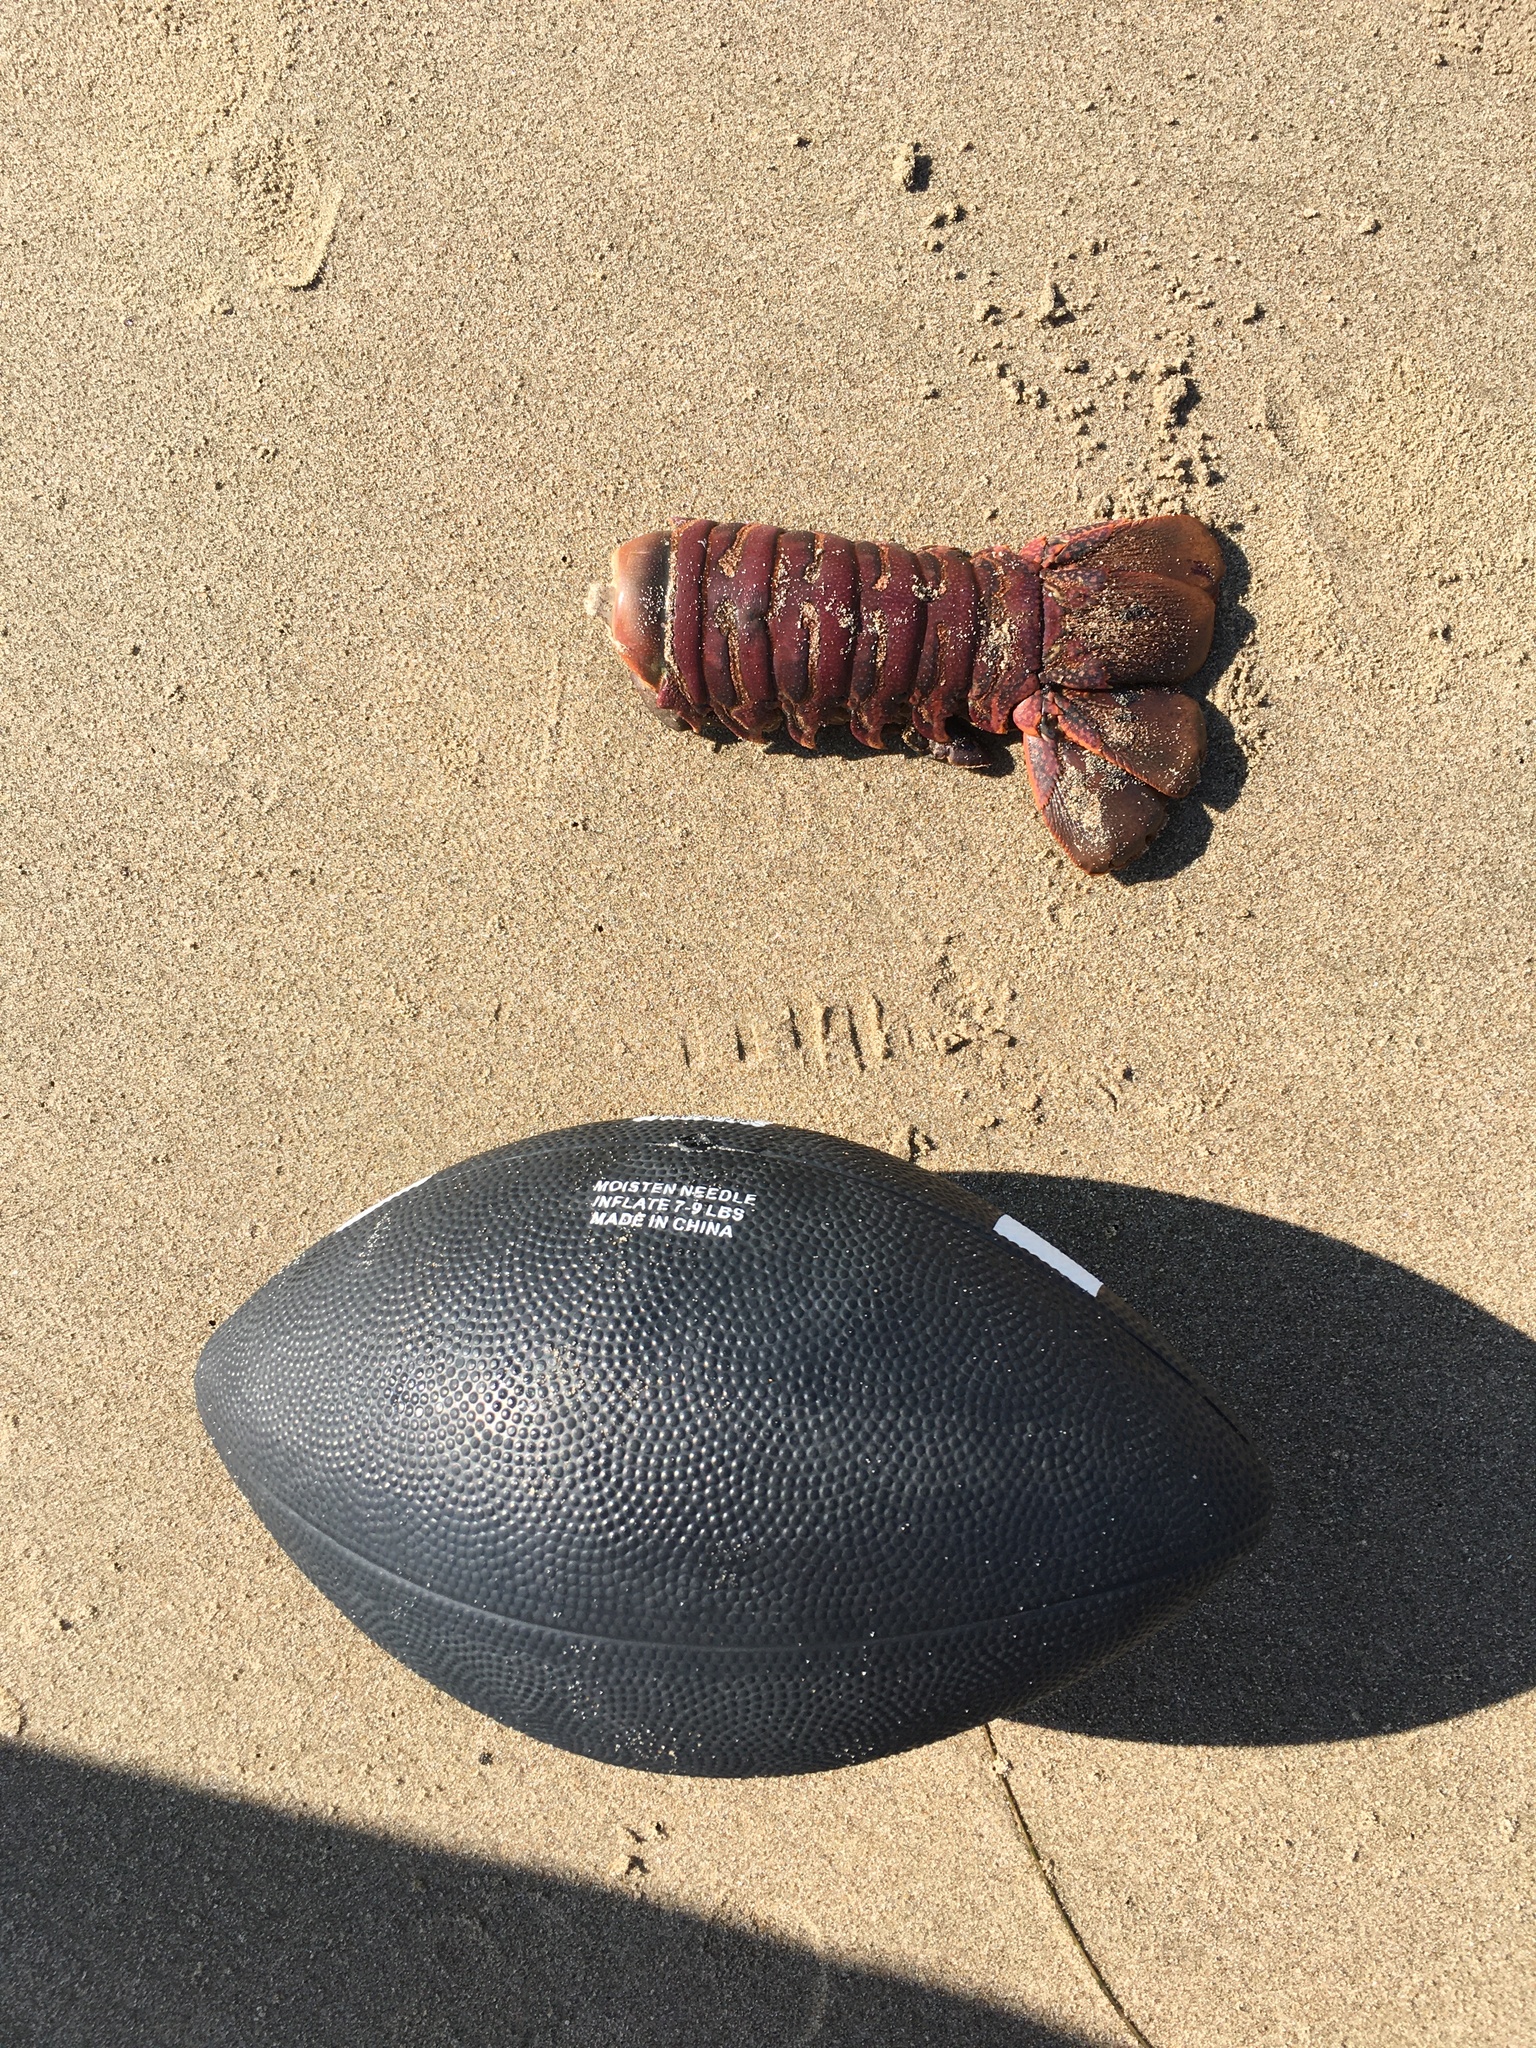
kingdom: Animalia
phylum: Arthropoda
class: Malacostraca
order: Decapoda
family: Palinuridae
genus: Panulirus
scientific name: Panulirus interruptus
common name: California spiny lobster
